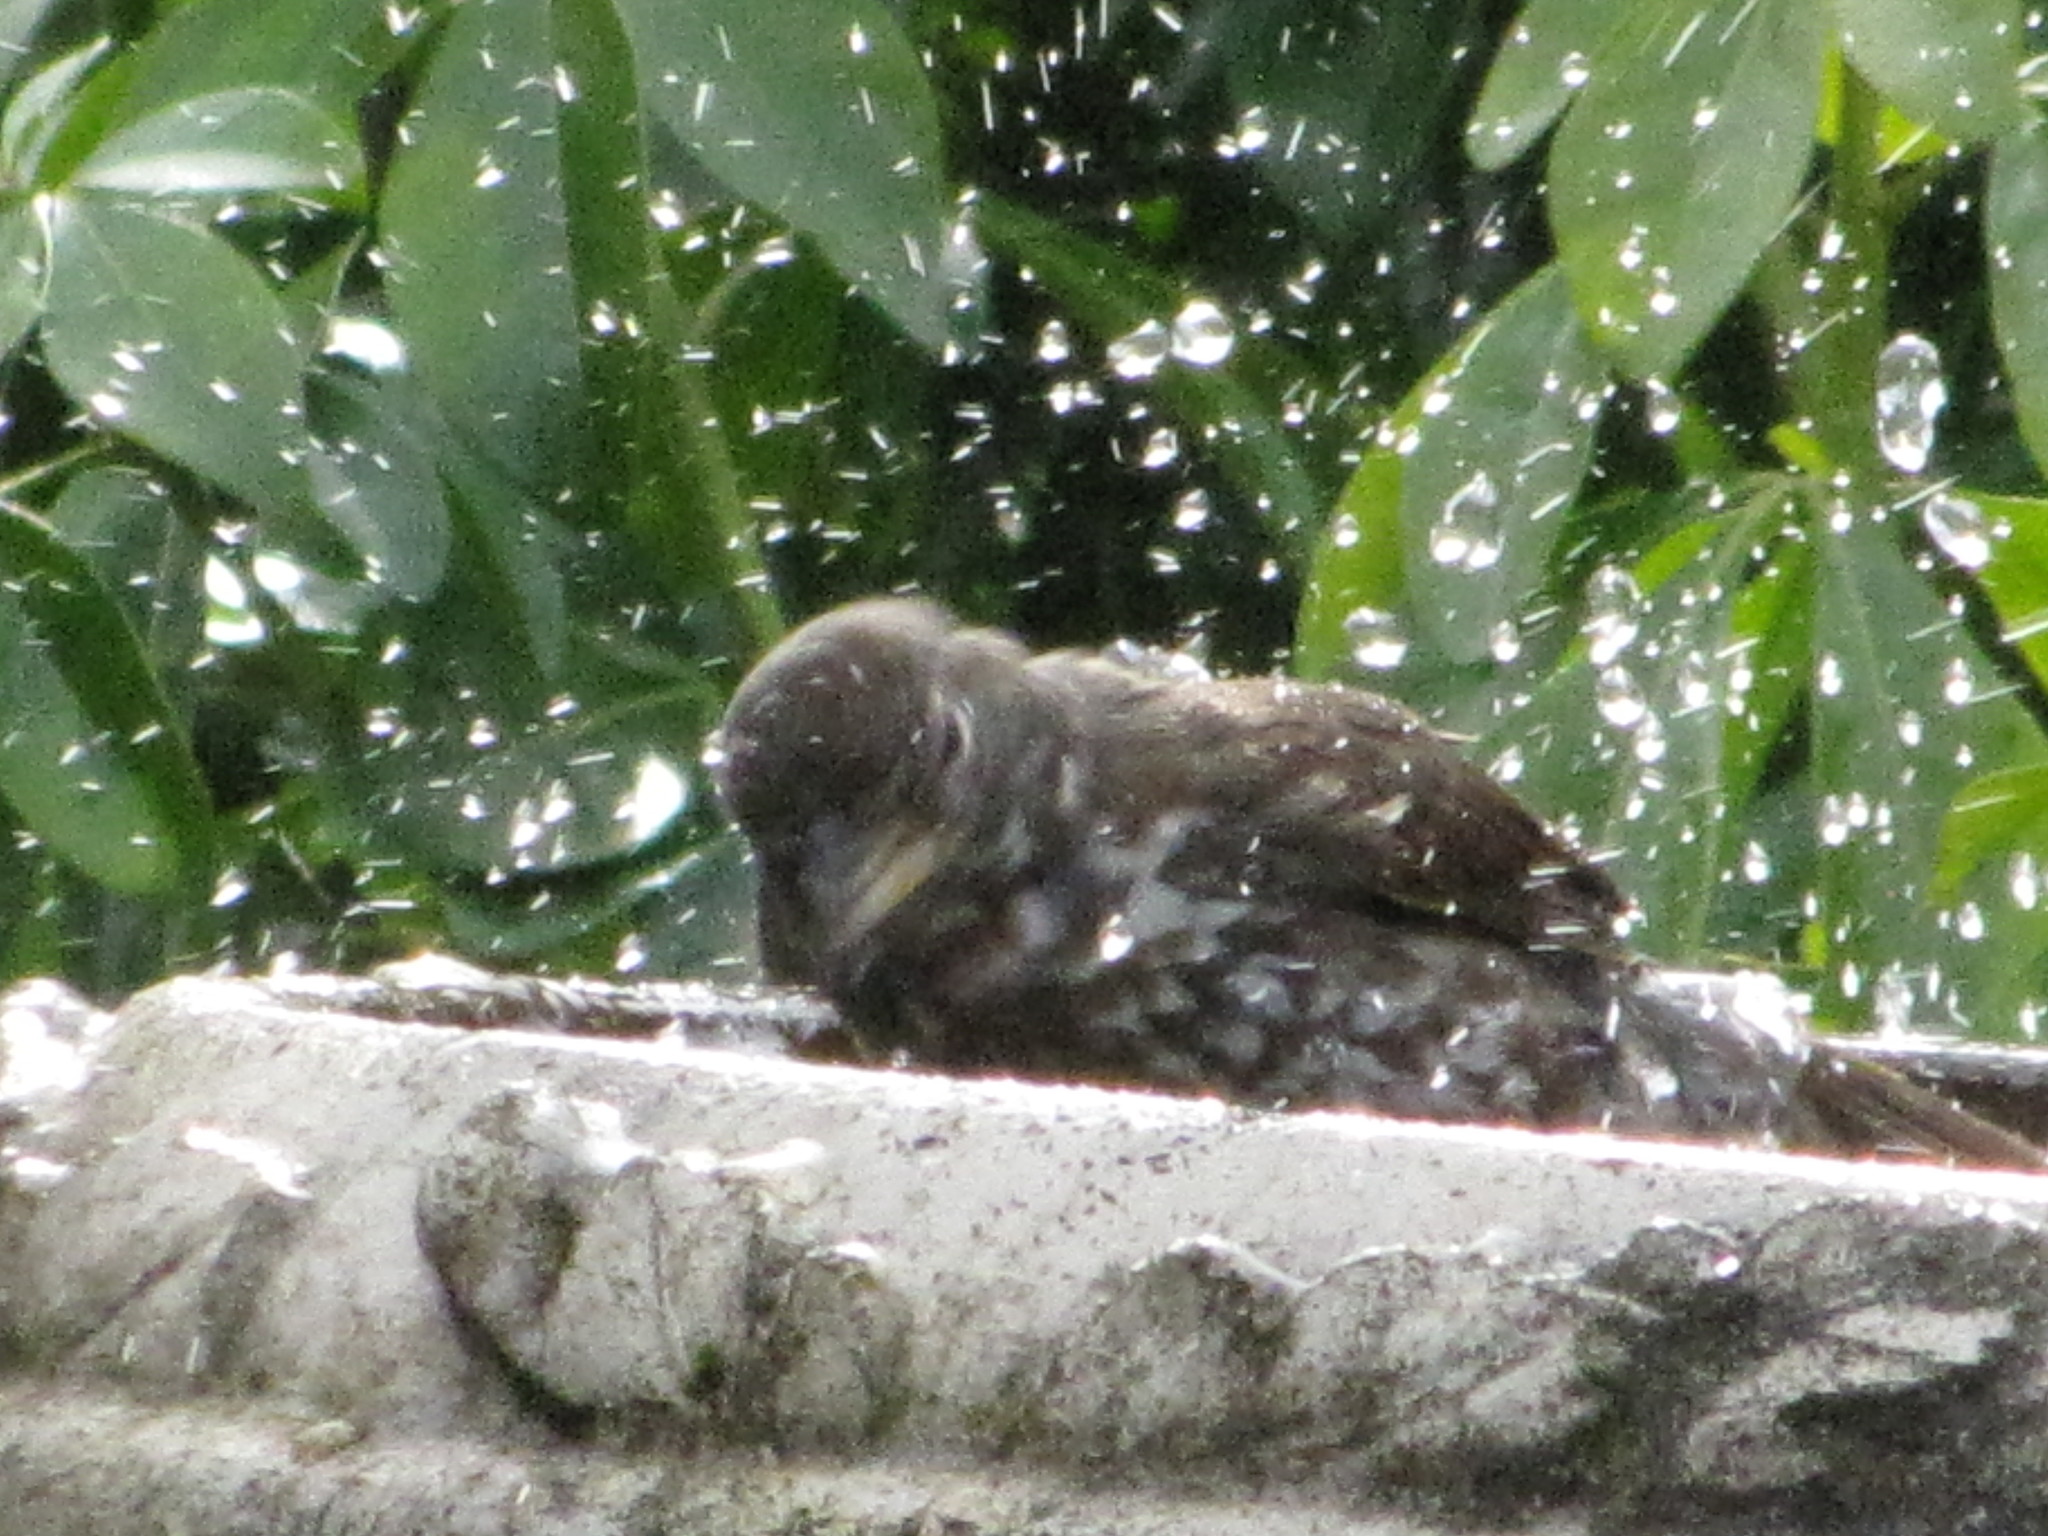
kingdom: Animalia
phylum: Chordata
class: Aves
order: Passeriformes
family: Passerellidae
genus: Passerella
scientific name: Passerella iliaca
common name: Fox sparrow
